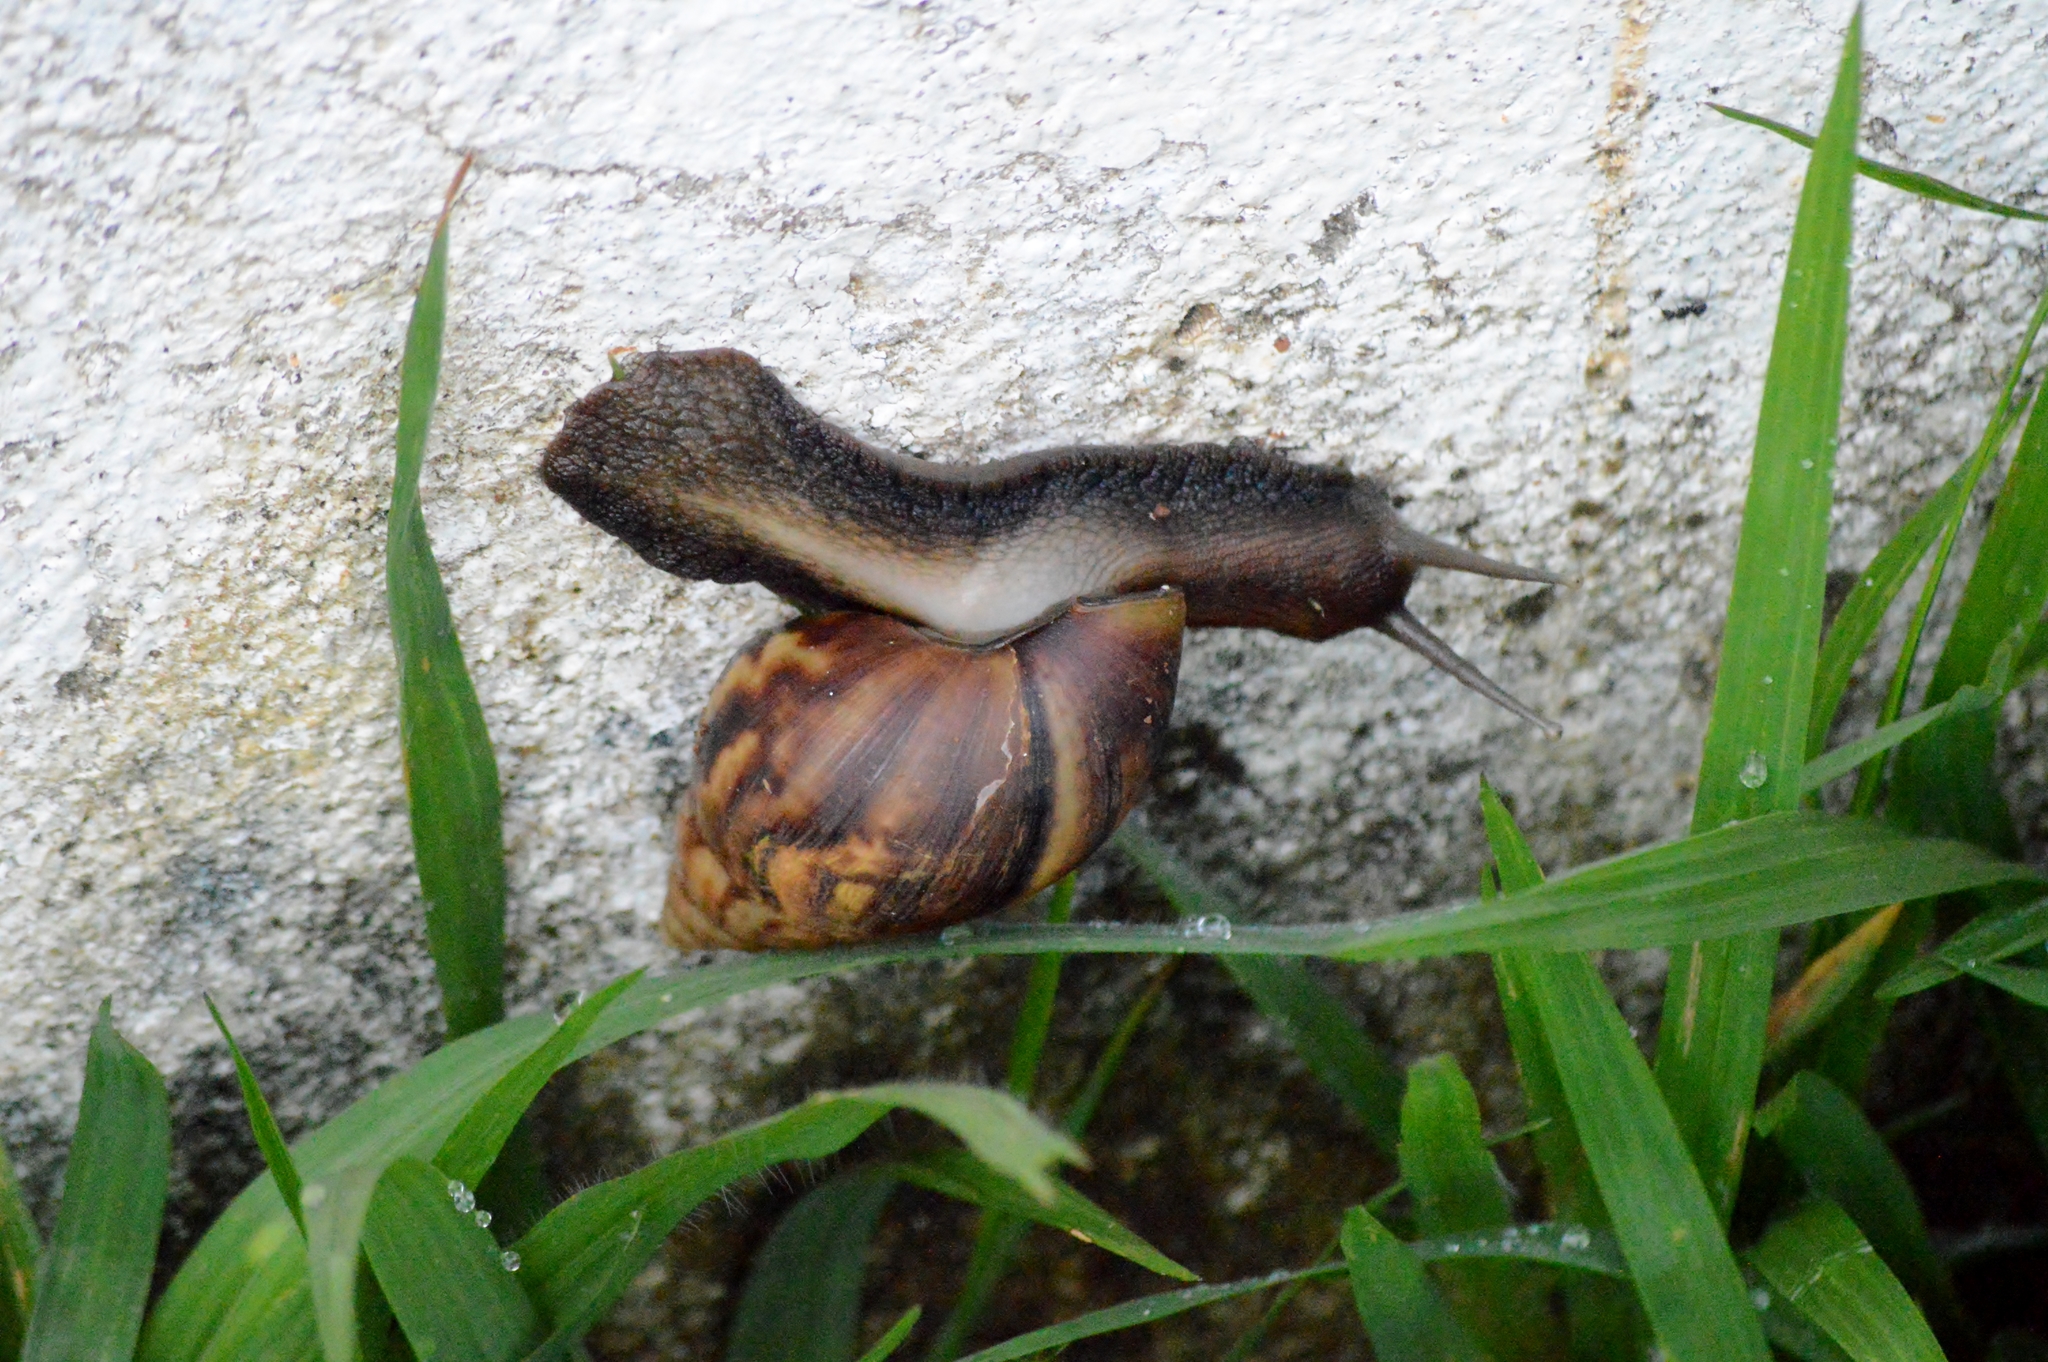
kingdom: Animalia
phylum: Mollusca
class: Gastropoda
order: Stylommatophora
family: Achatinidae
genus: Lissachatina
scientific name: Lissachatina fulica
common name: Giant african snail
